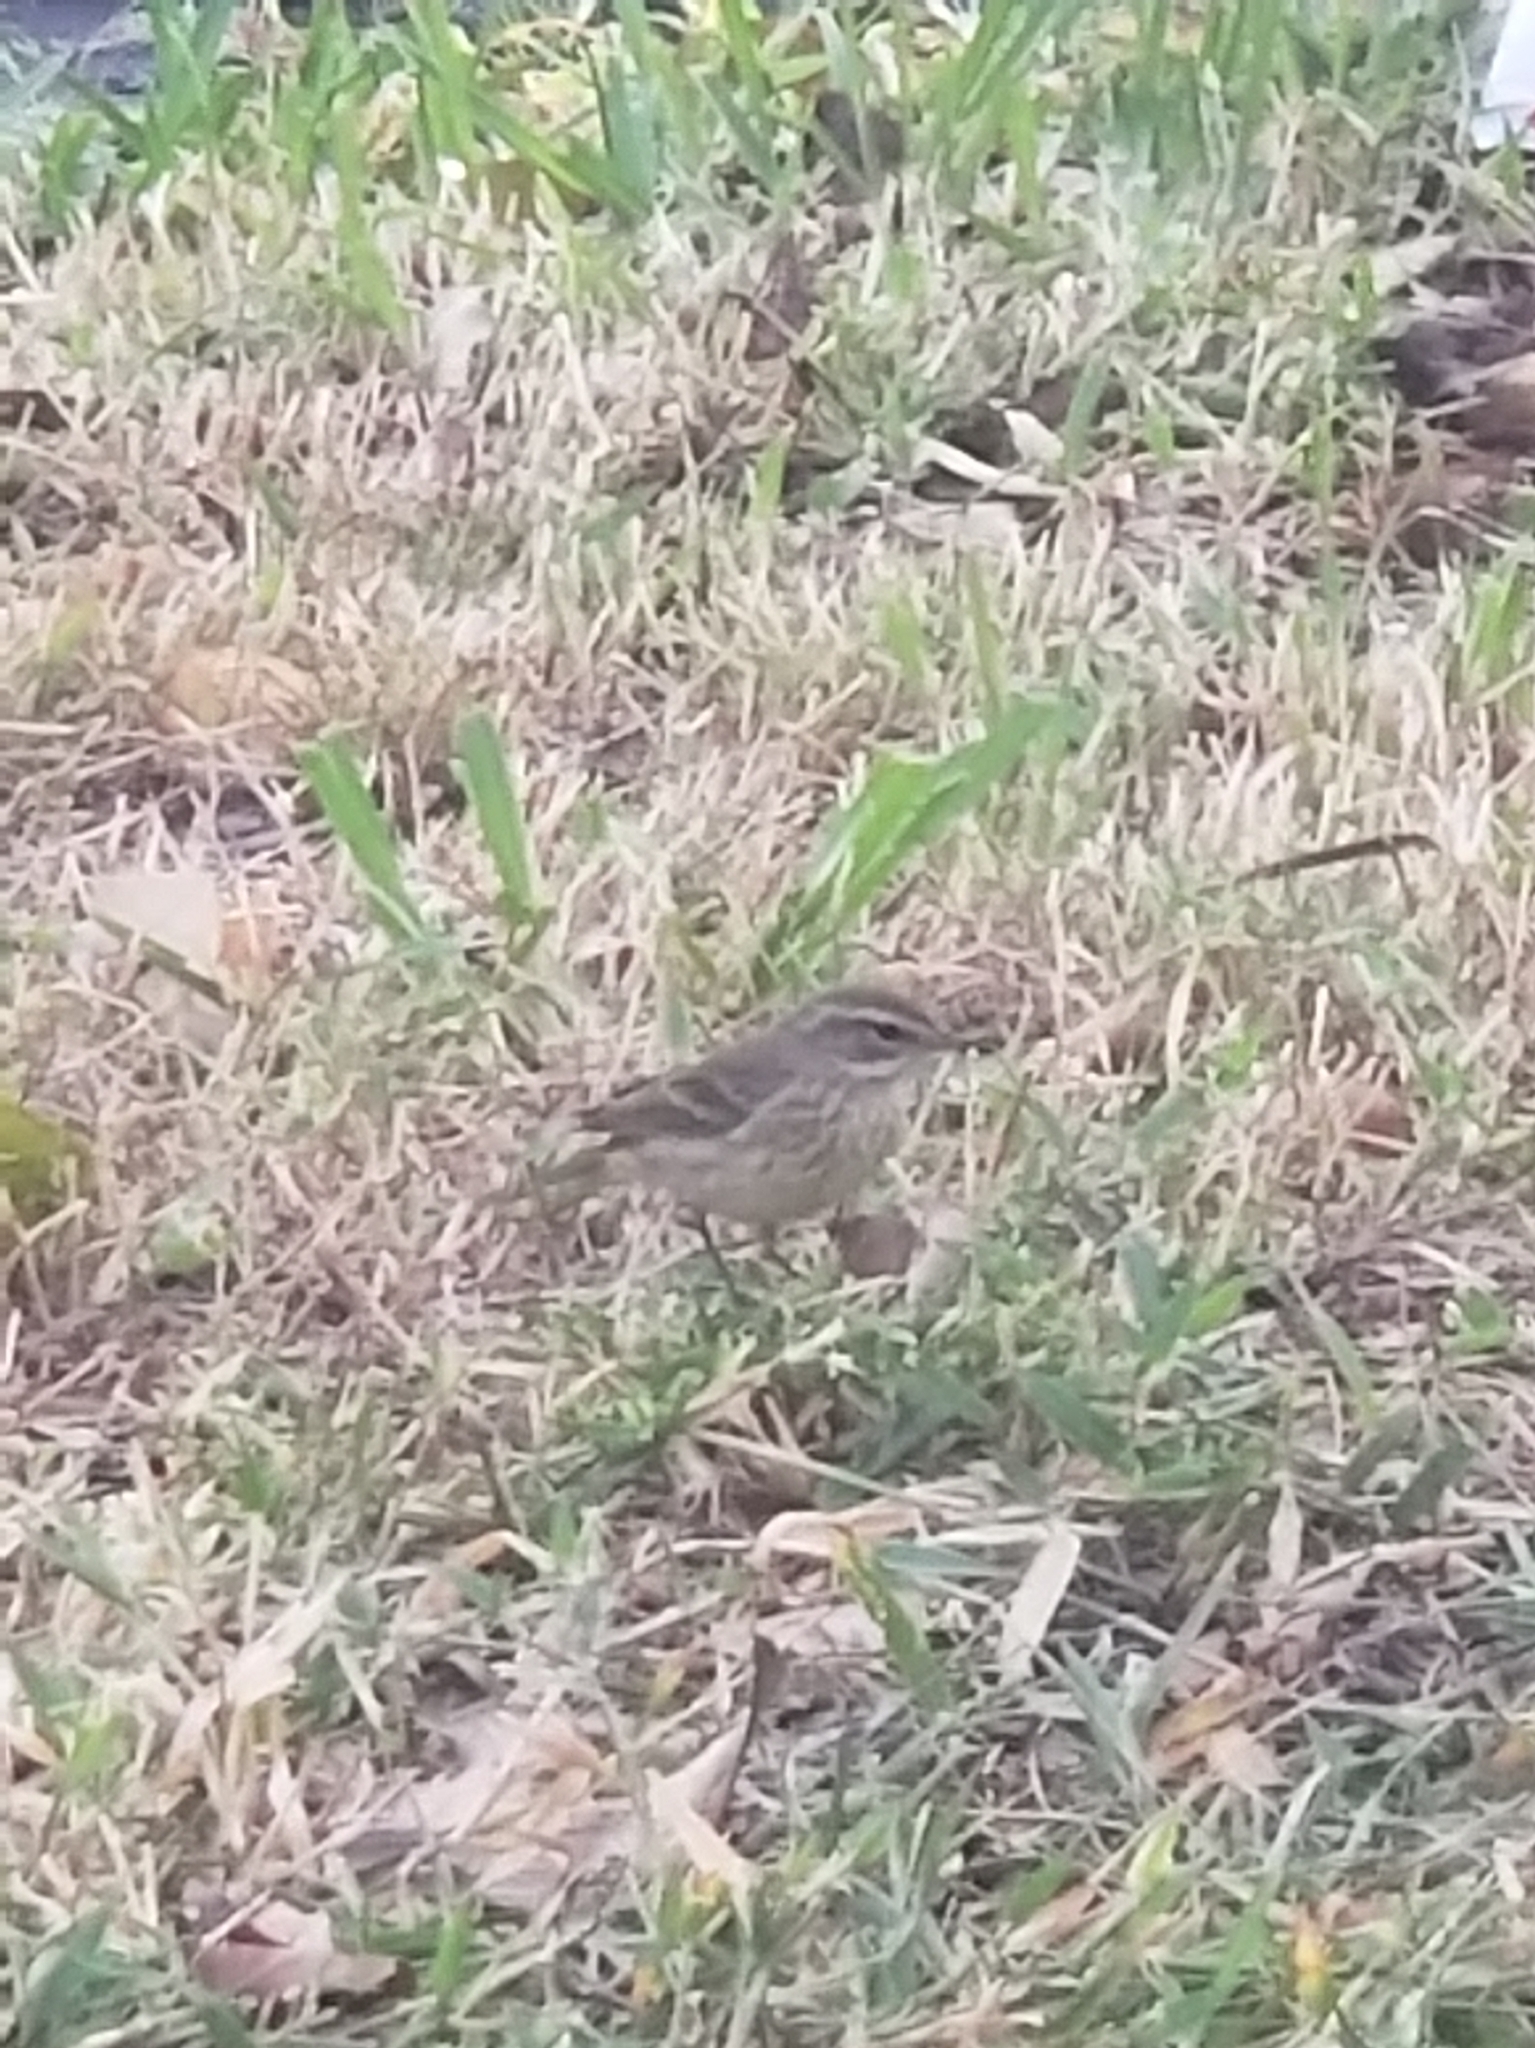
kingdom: Animalia
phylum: Chordata
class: Aves
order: Passeriformes
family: Parulidae
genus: Setophaga
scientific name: Setophaga palmarum
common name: Palm warbler
